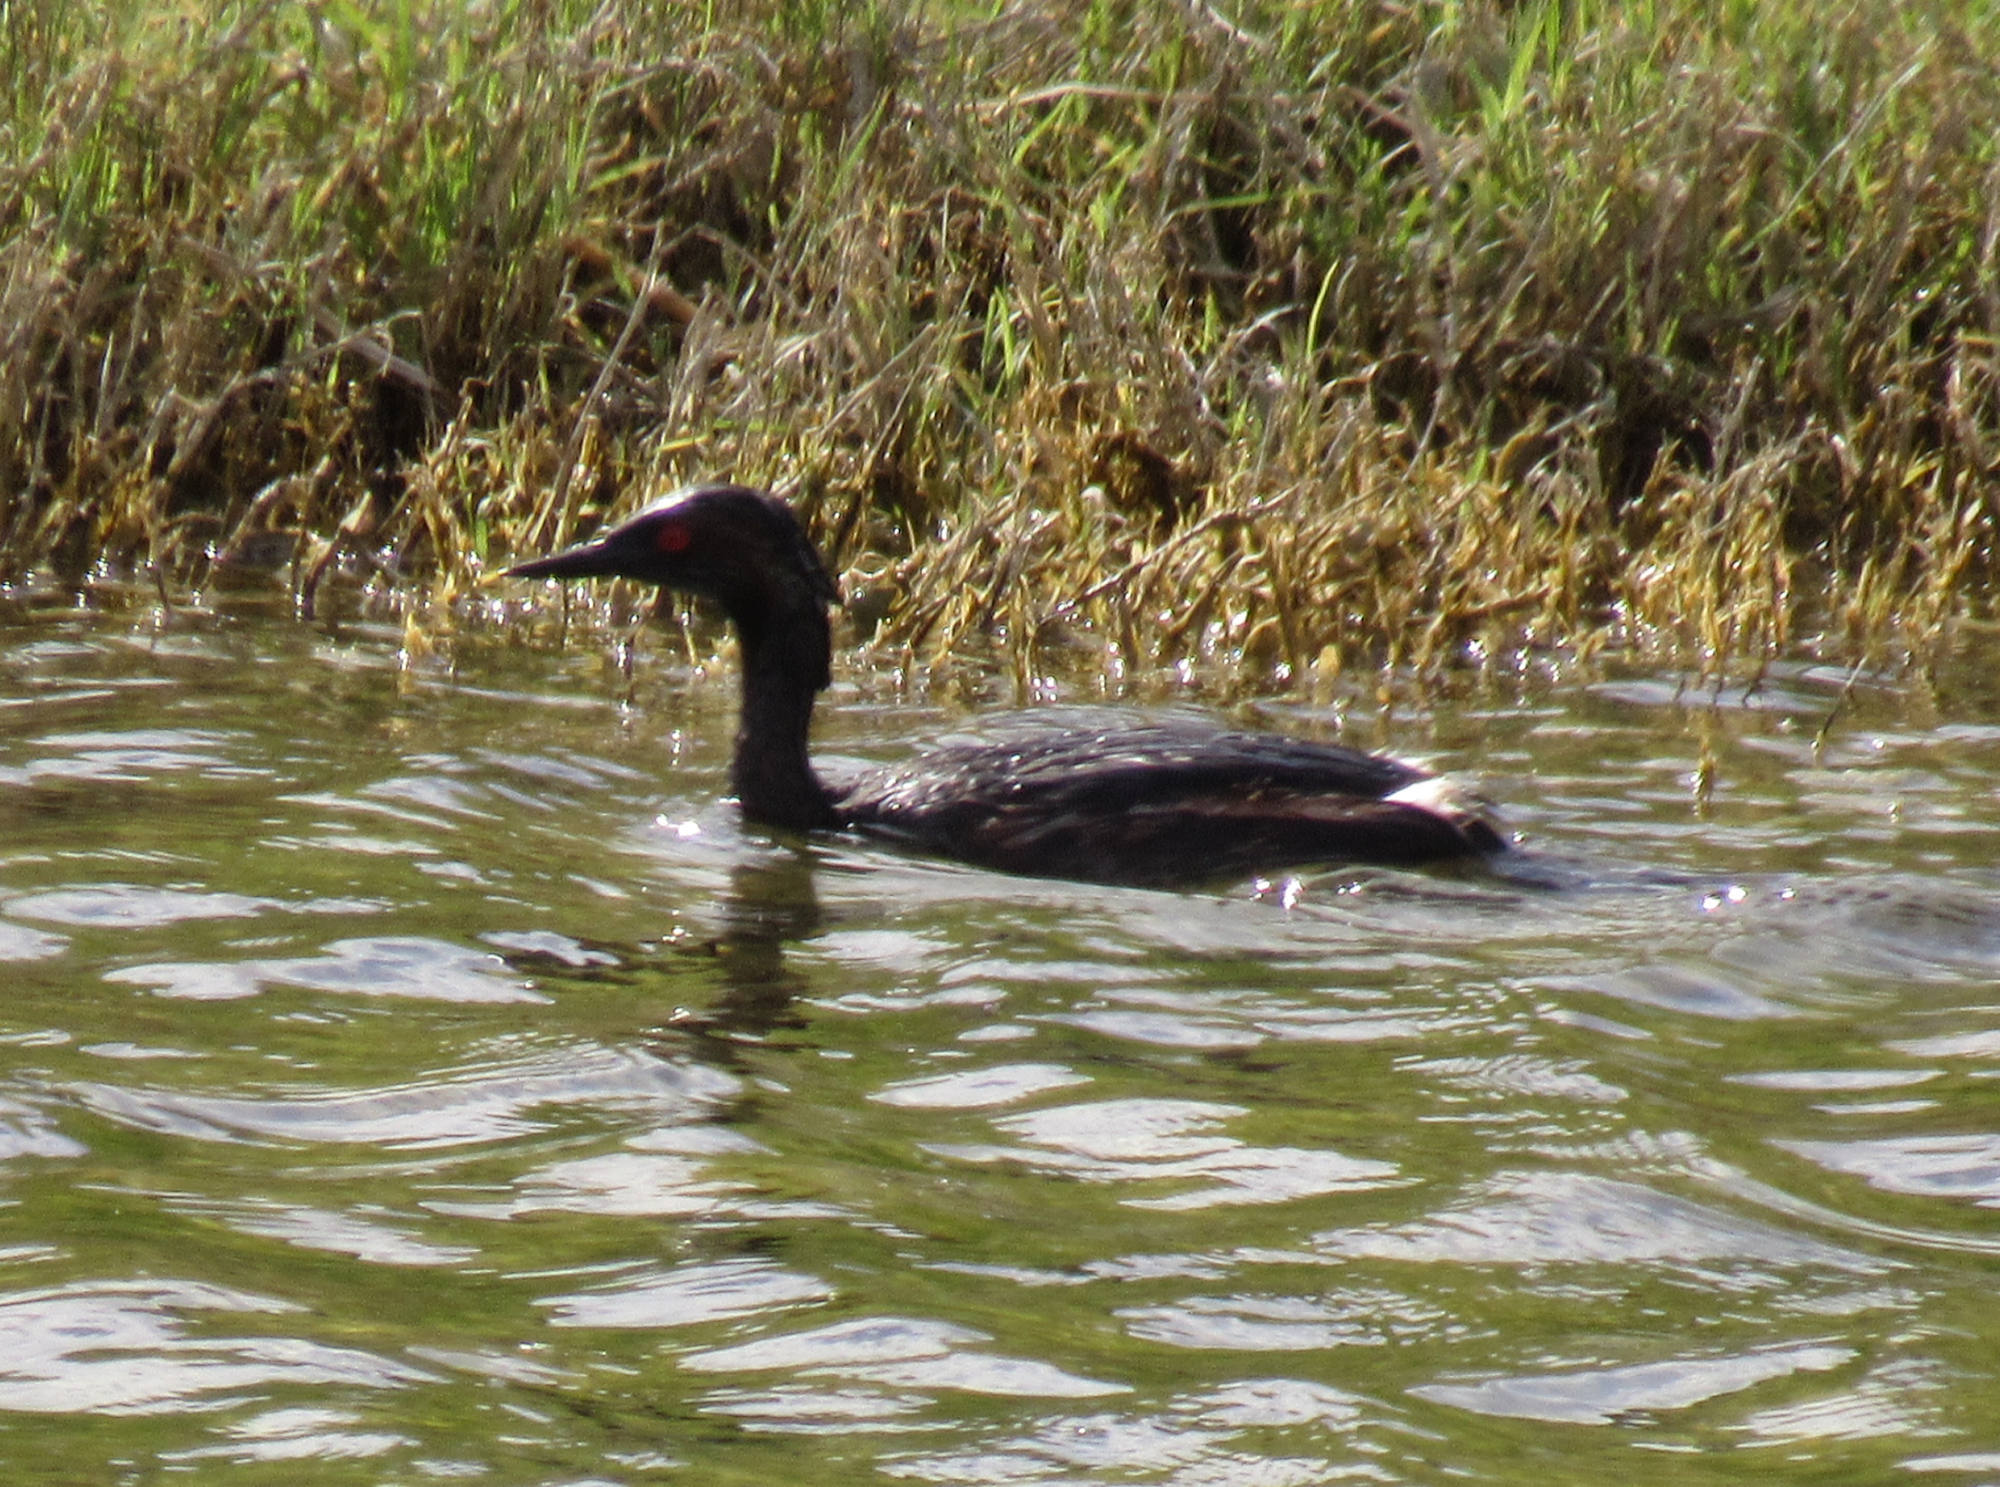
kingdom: Animalia
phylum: Chordata
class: Aves
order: Podicipediformes
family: Podicipedidae
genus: Podiceps
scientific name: Podiceps nigricollis
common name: Black-necked grebe
